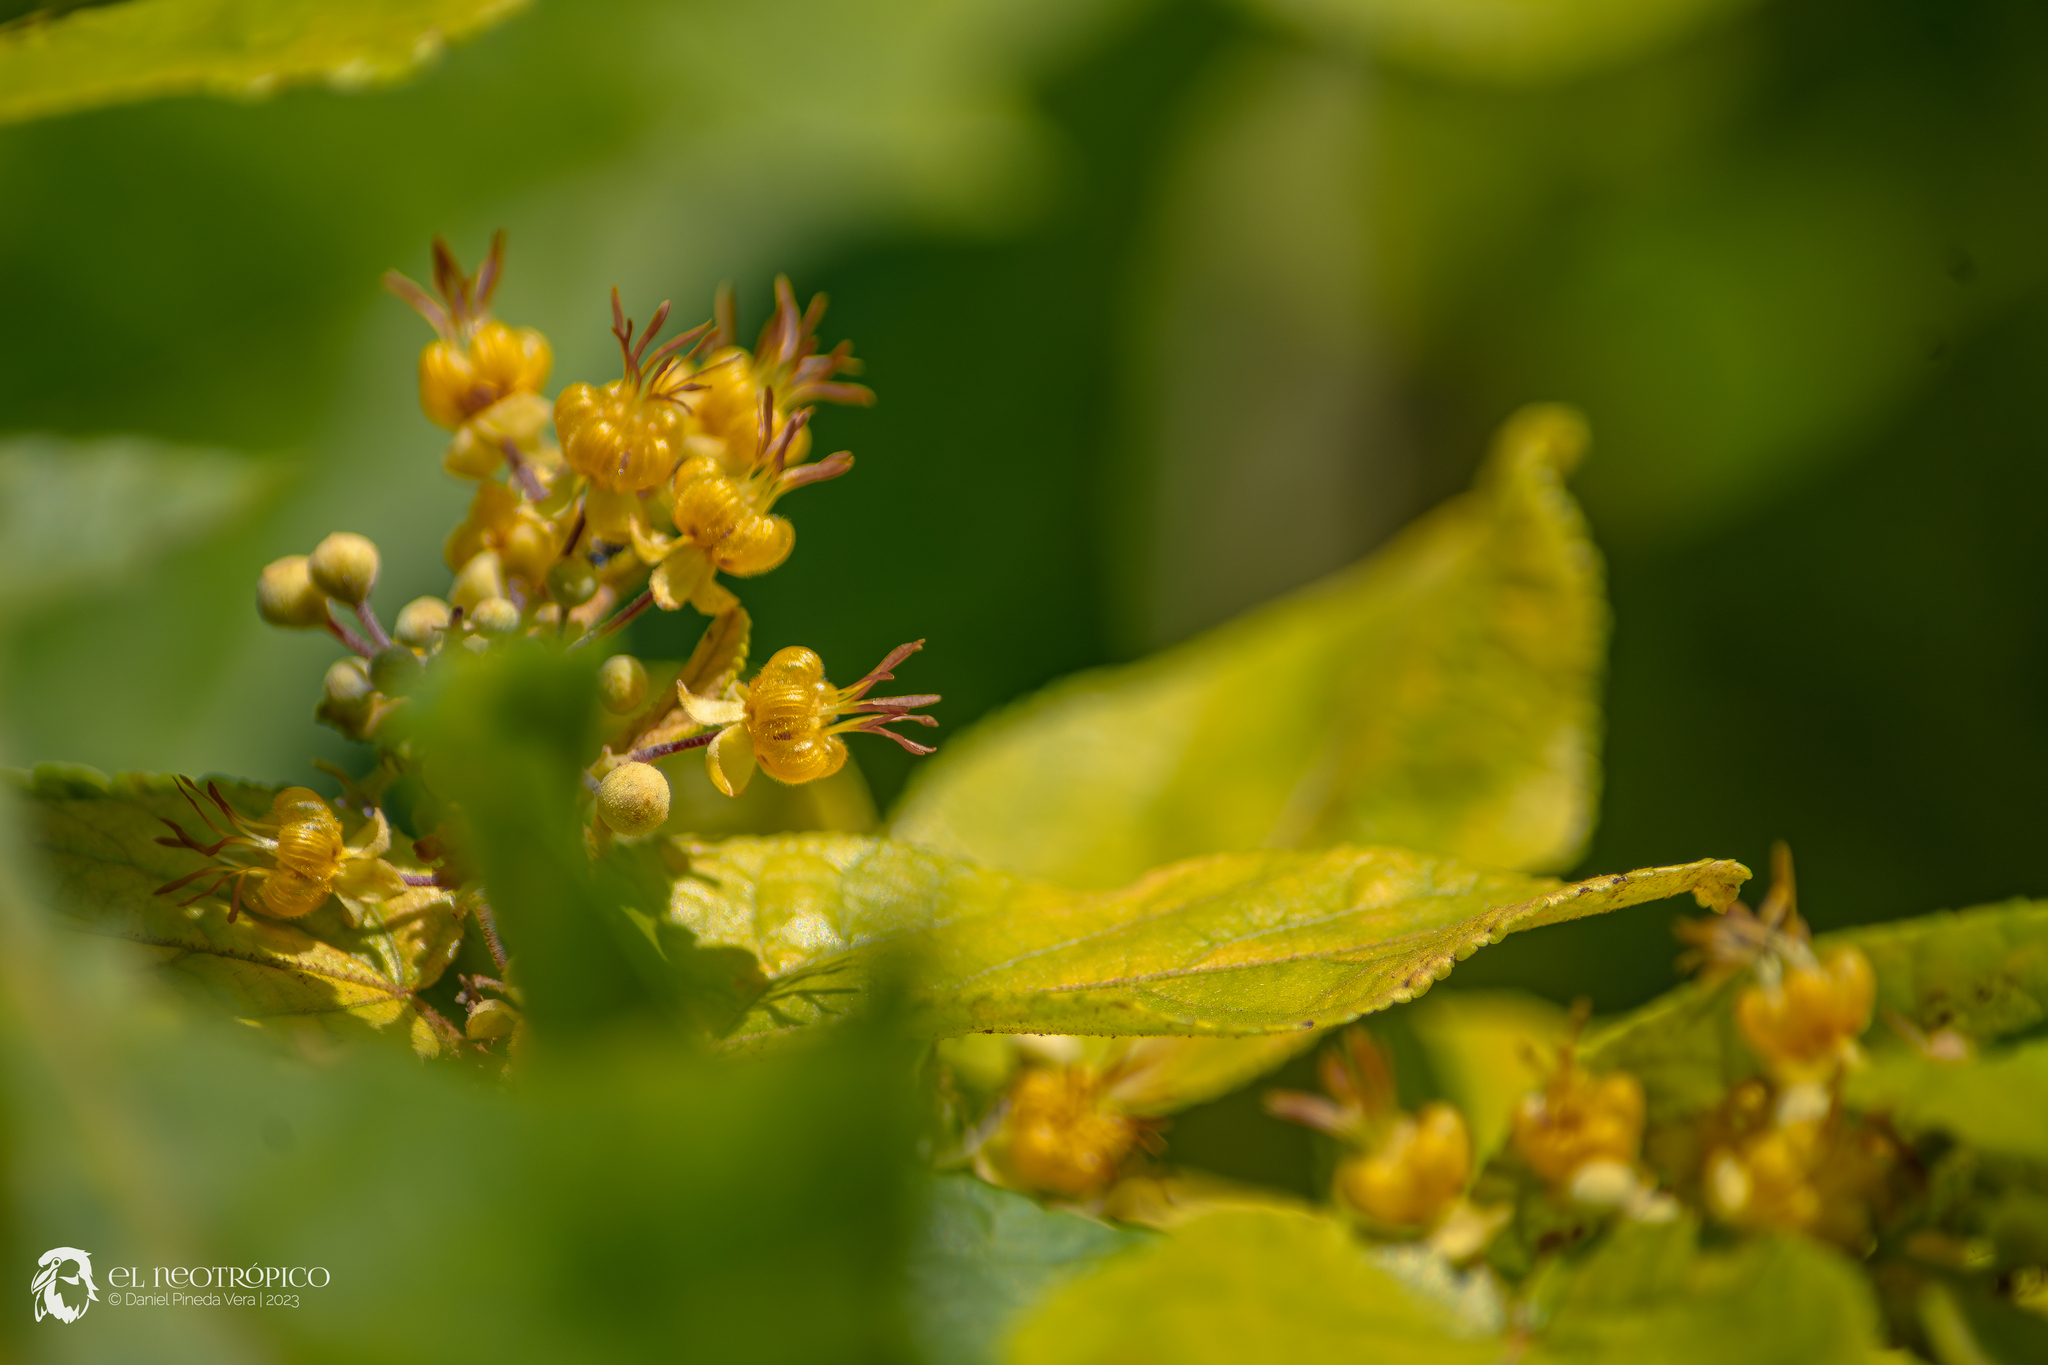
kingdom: Plantae
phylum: Tracheophyta
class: Magnoliopsida
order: Malvales
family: Malvaceae
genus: Guazuma
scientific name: Guazuma ulmifolia
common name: Bastard-cedar
